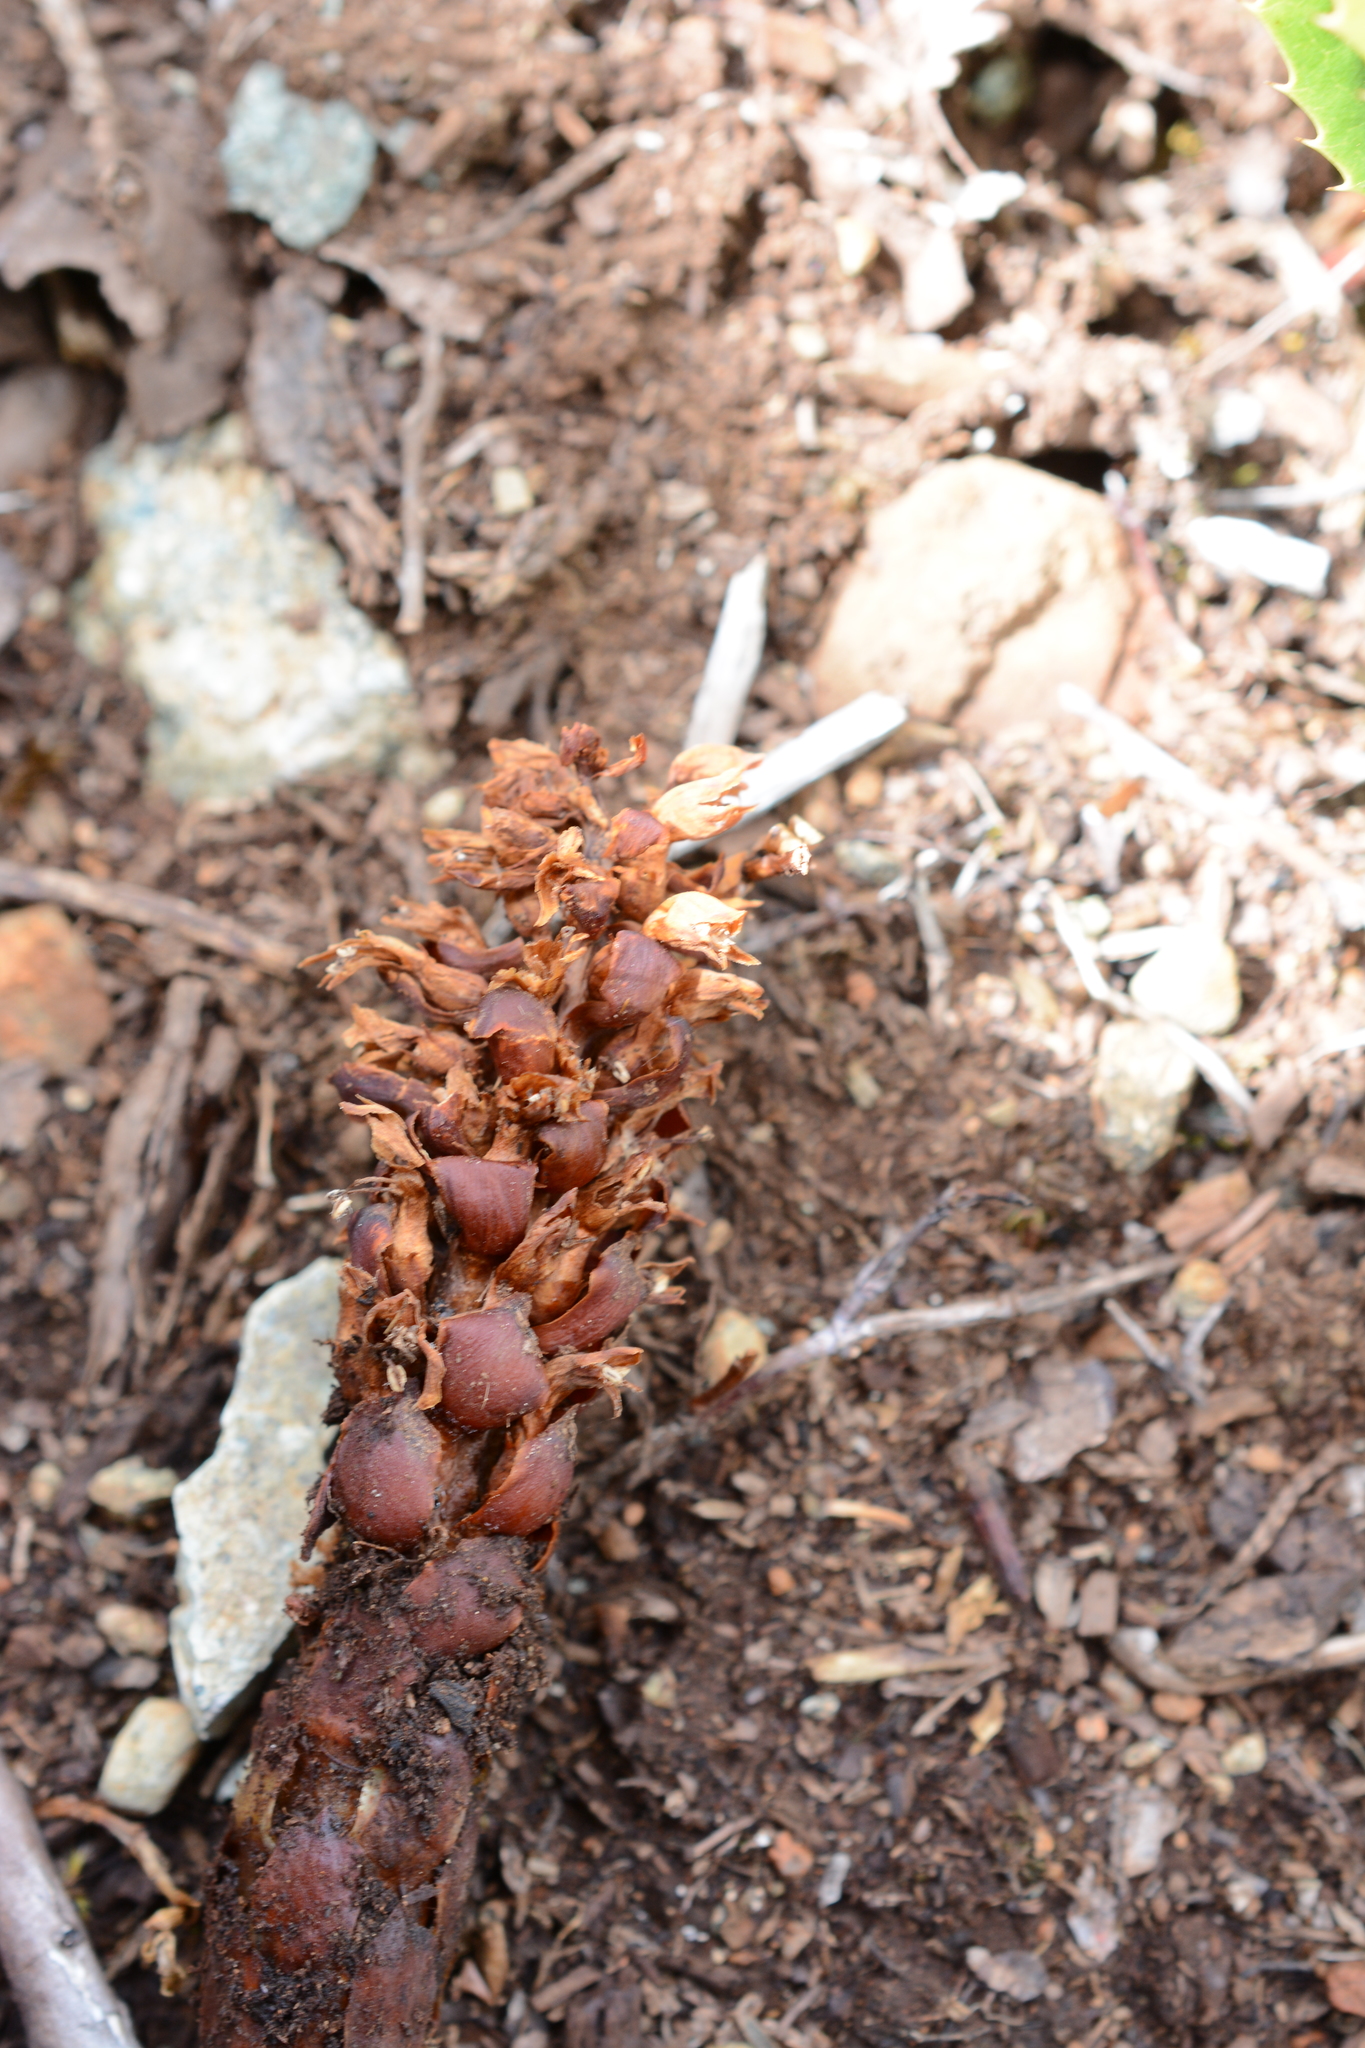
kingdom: Plantae
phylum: Tracheophyta
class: Magnoliopsida
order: Lamiales
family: Orobanchaceae
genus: Kopsiopsis
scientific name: Kopsiopsis hookeri
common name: Hooker's groundcone
